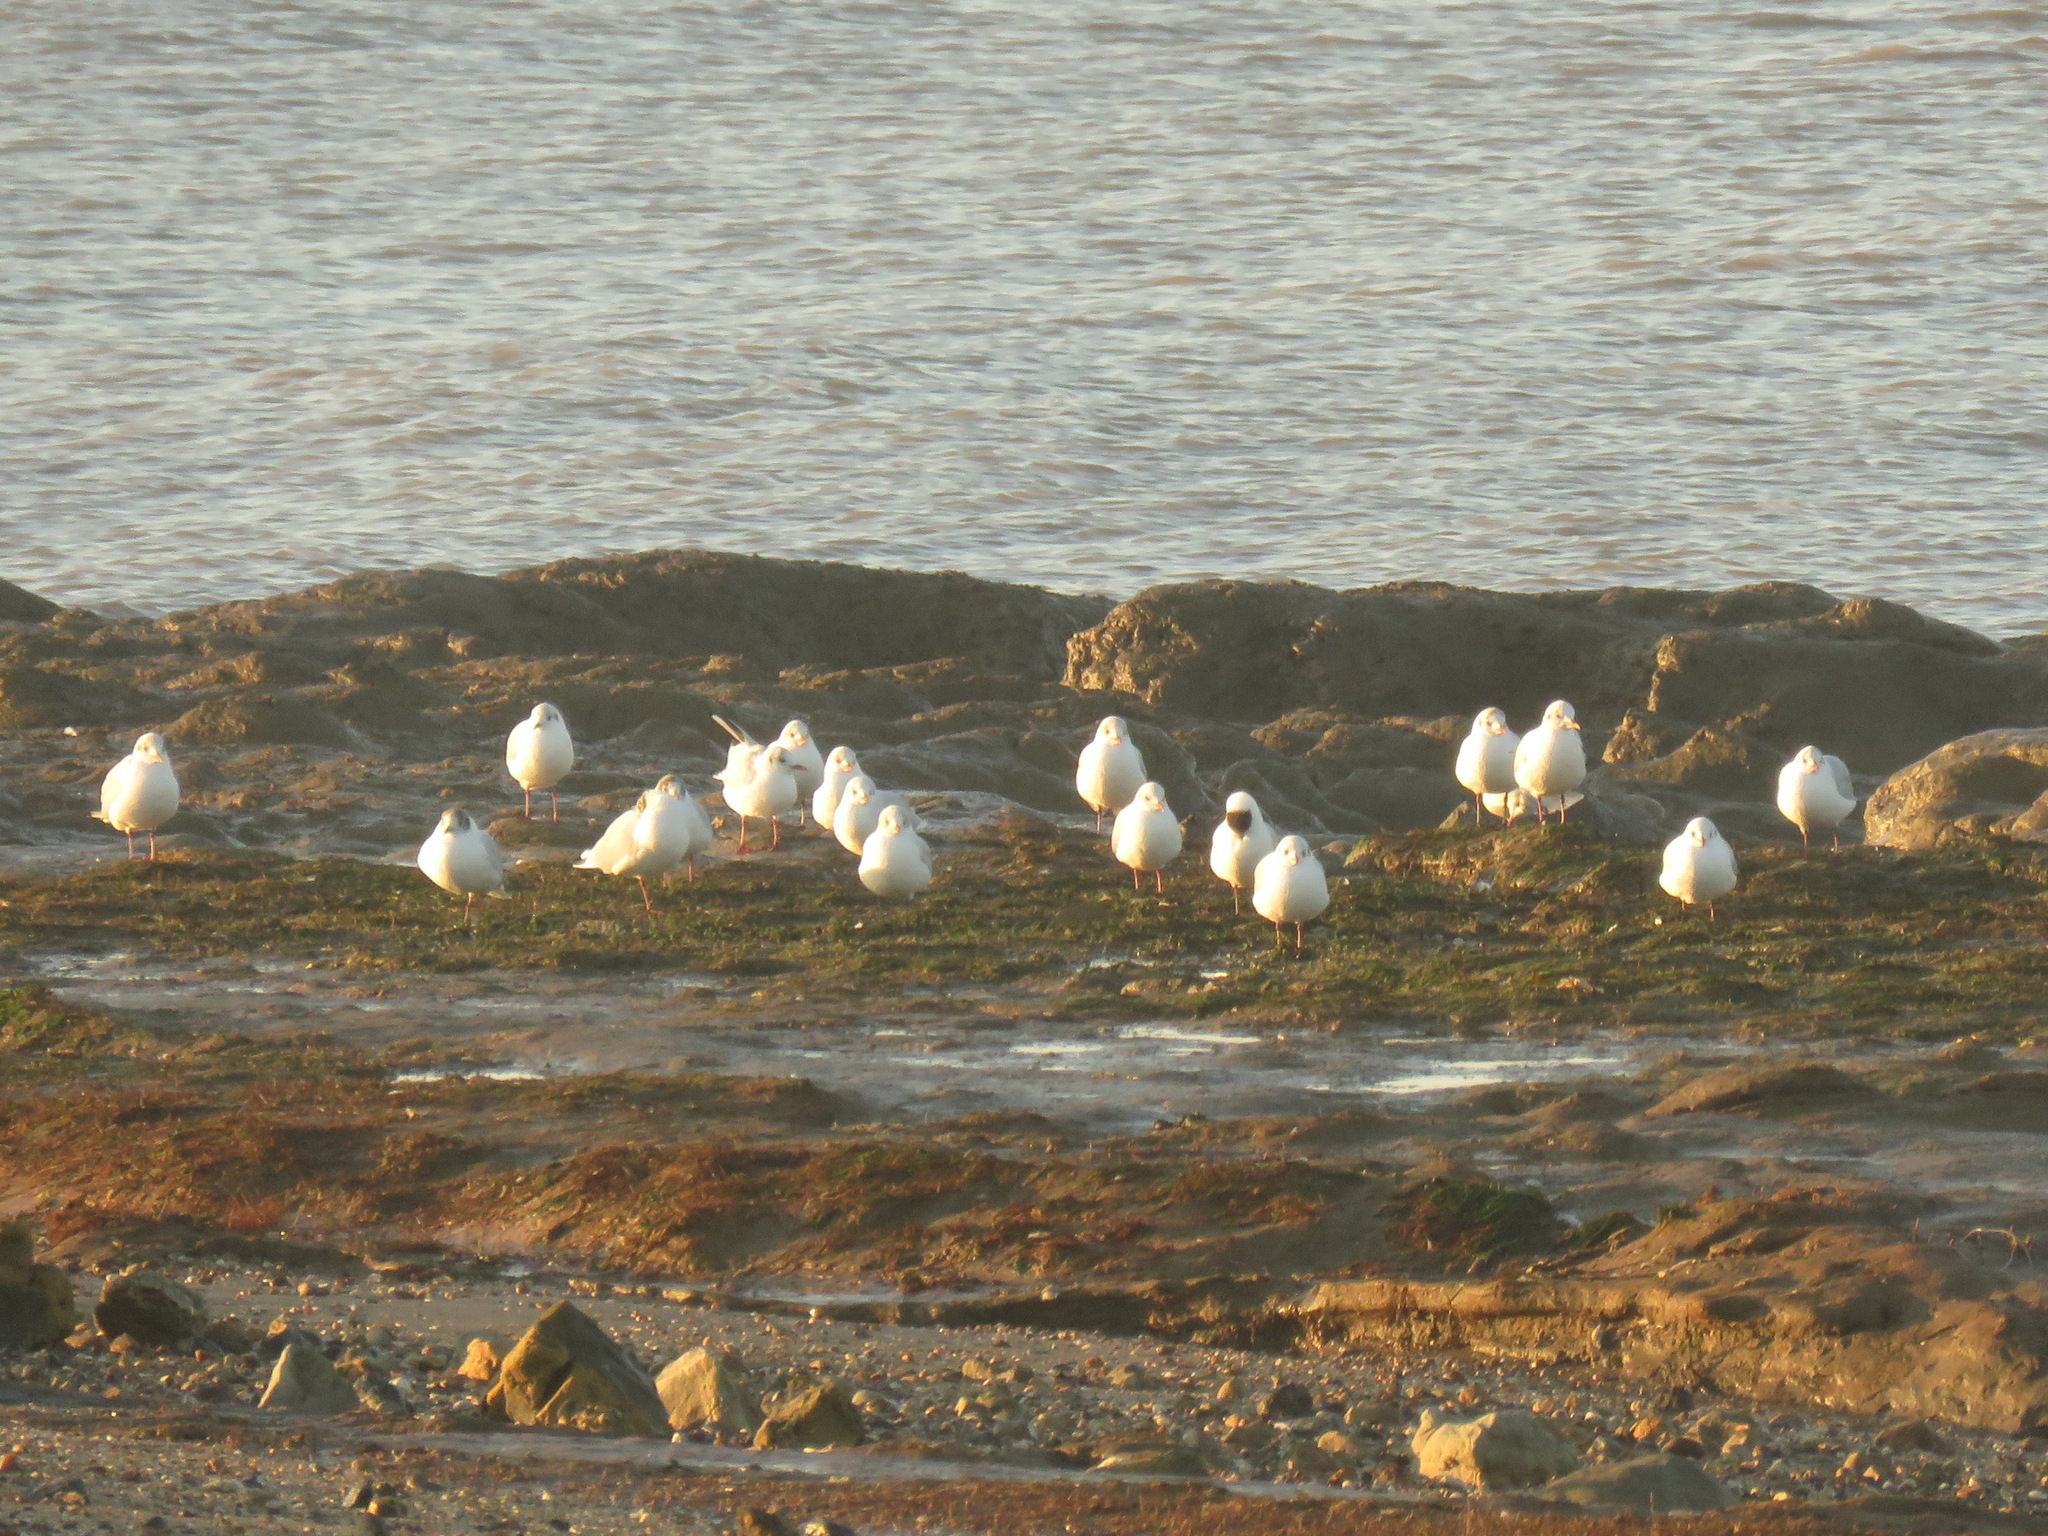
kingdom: Animalia
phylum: Chordata
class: Aves
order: Charadriiformes
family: Laridae
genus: Chroicocephalus
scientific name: Chroicocephalus ridibundus
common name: Black-headed gull
